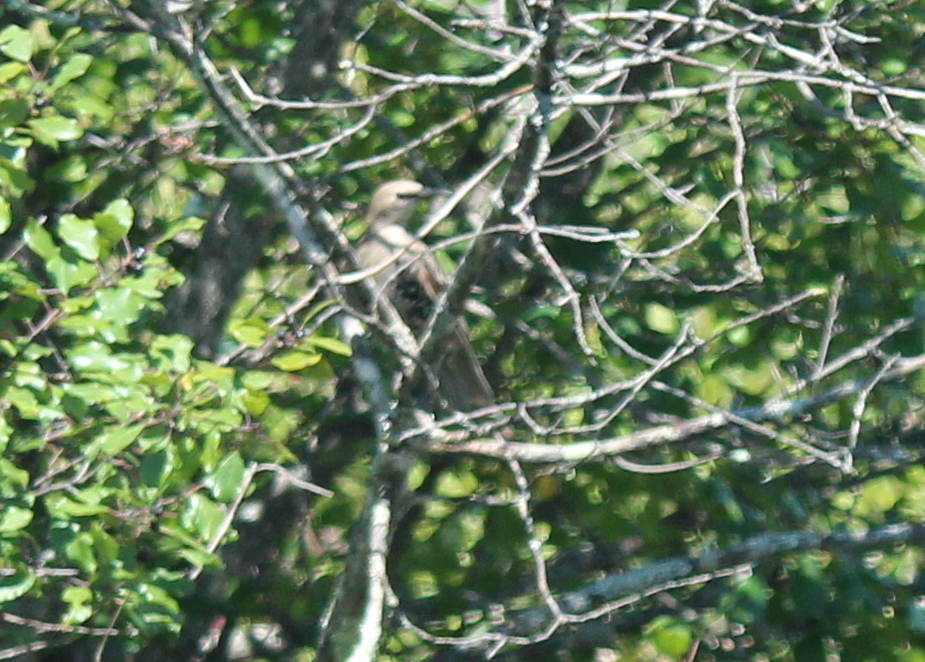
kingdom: Animalia
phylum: Chordata
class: Aves
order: Passeriformes
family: Sturnidae
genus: Sturnus
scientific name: Sturnus vulgaris
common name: Common starling
